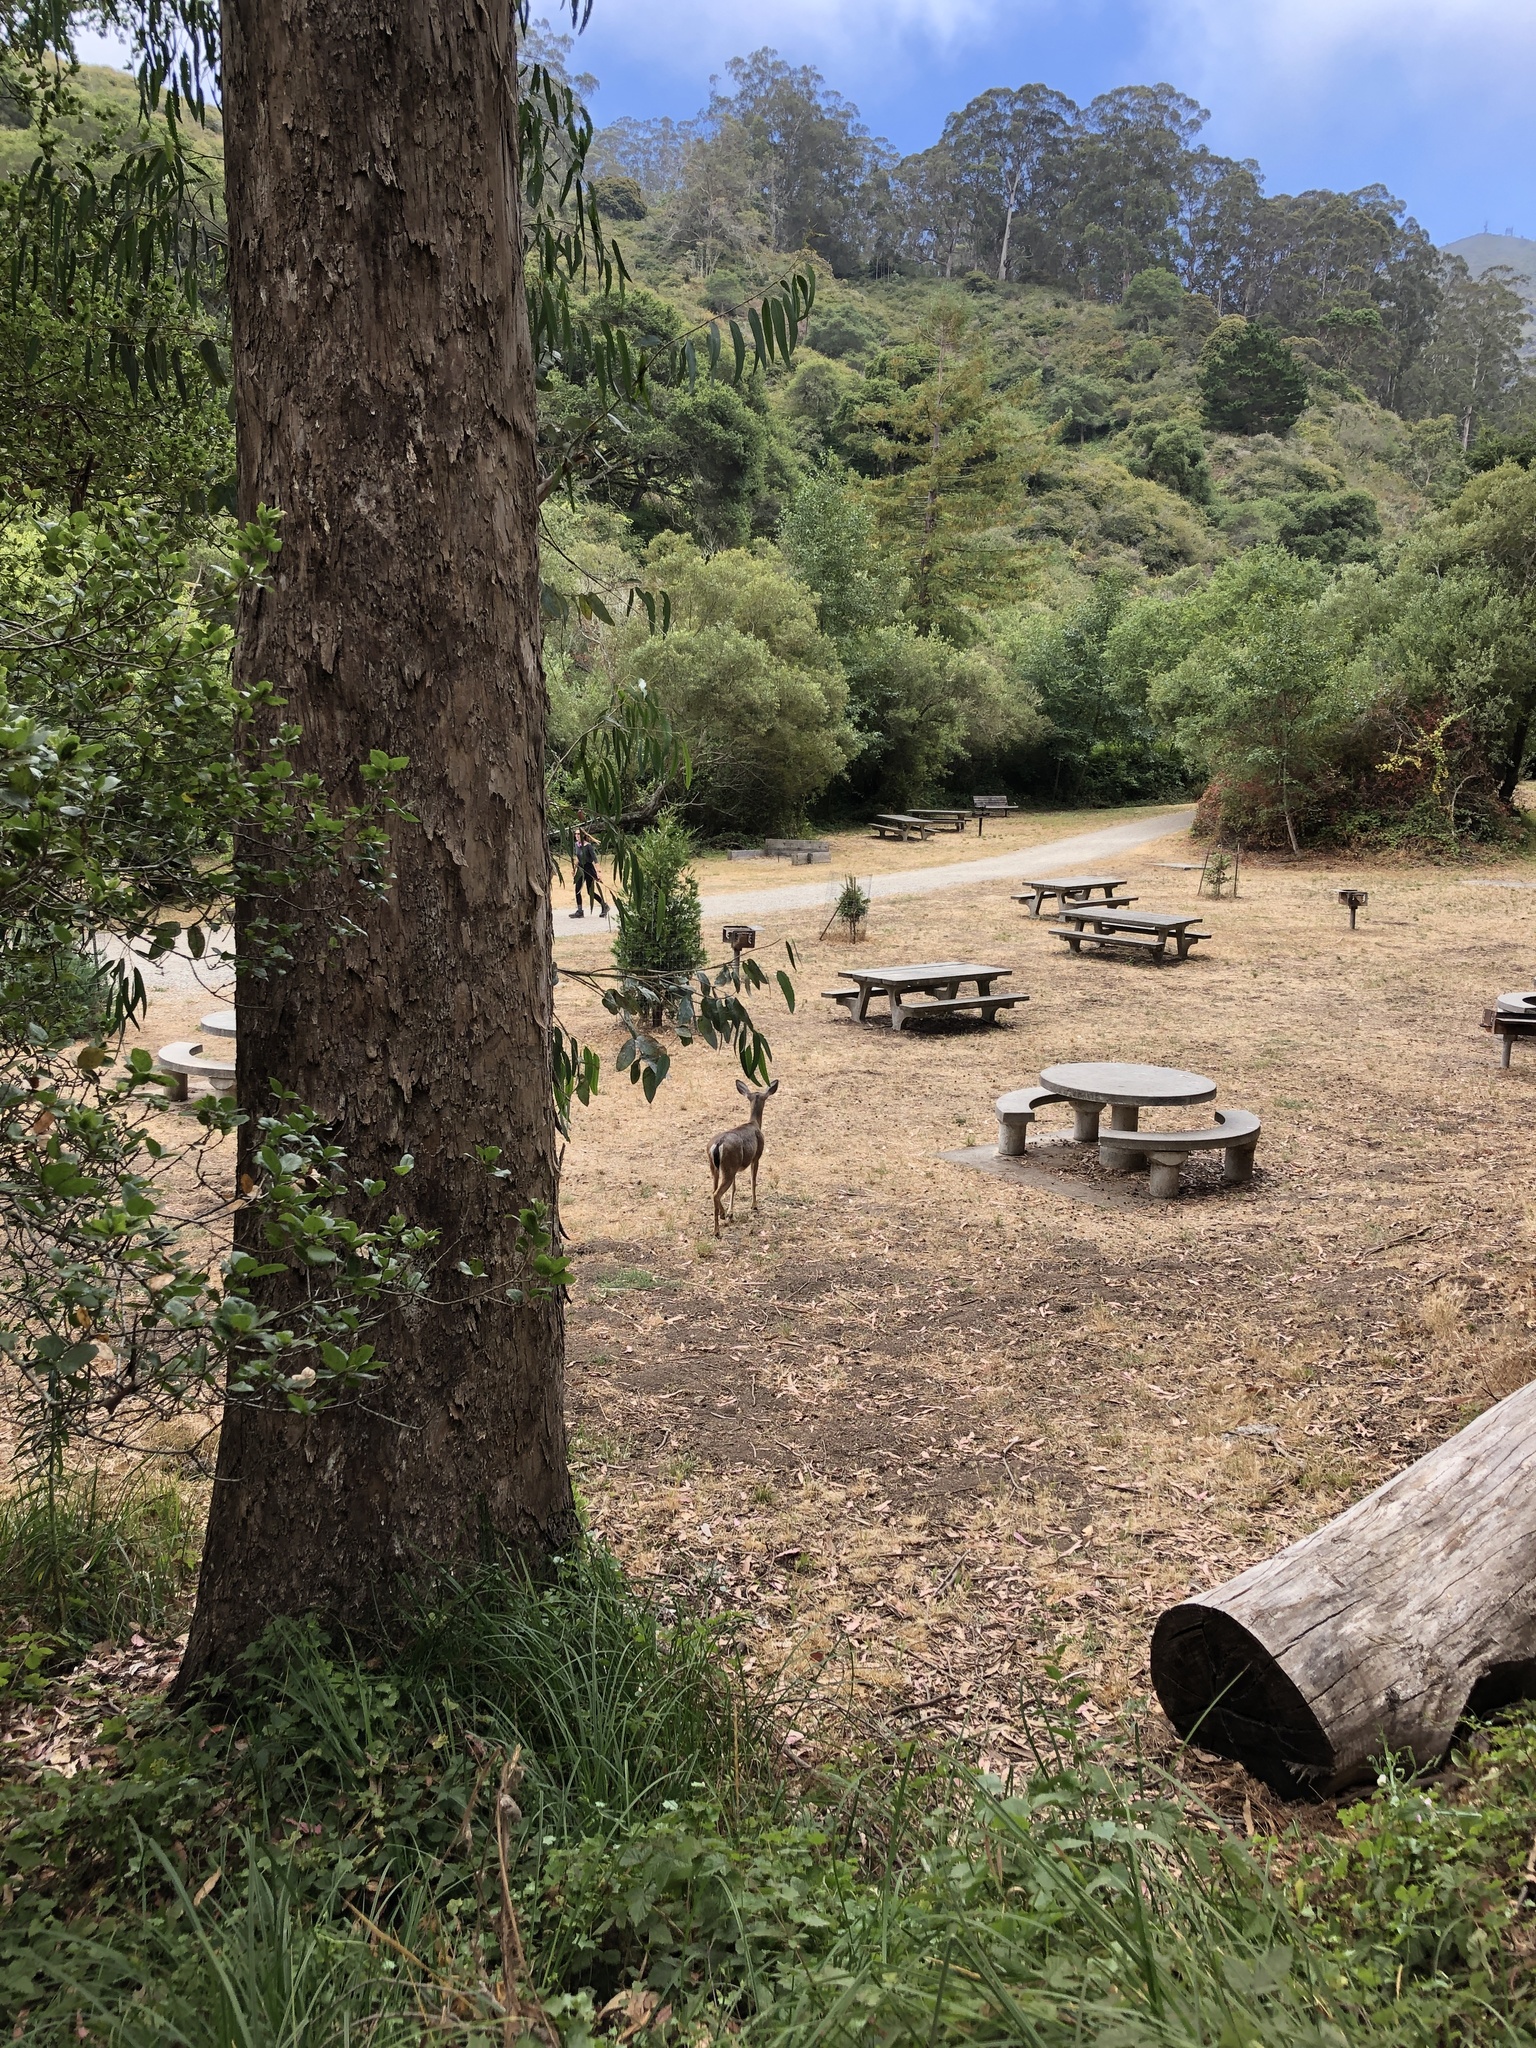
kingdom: Animalia
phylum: Chordata
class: Mammalia
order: Artiodactyla
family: Cervidae
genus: Odocoileus
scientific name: Odocoileus hemionus
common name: Mule deer
